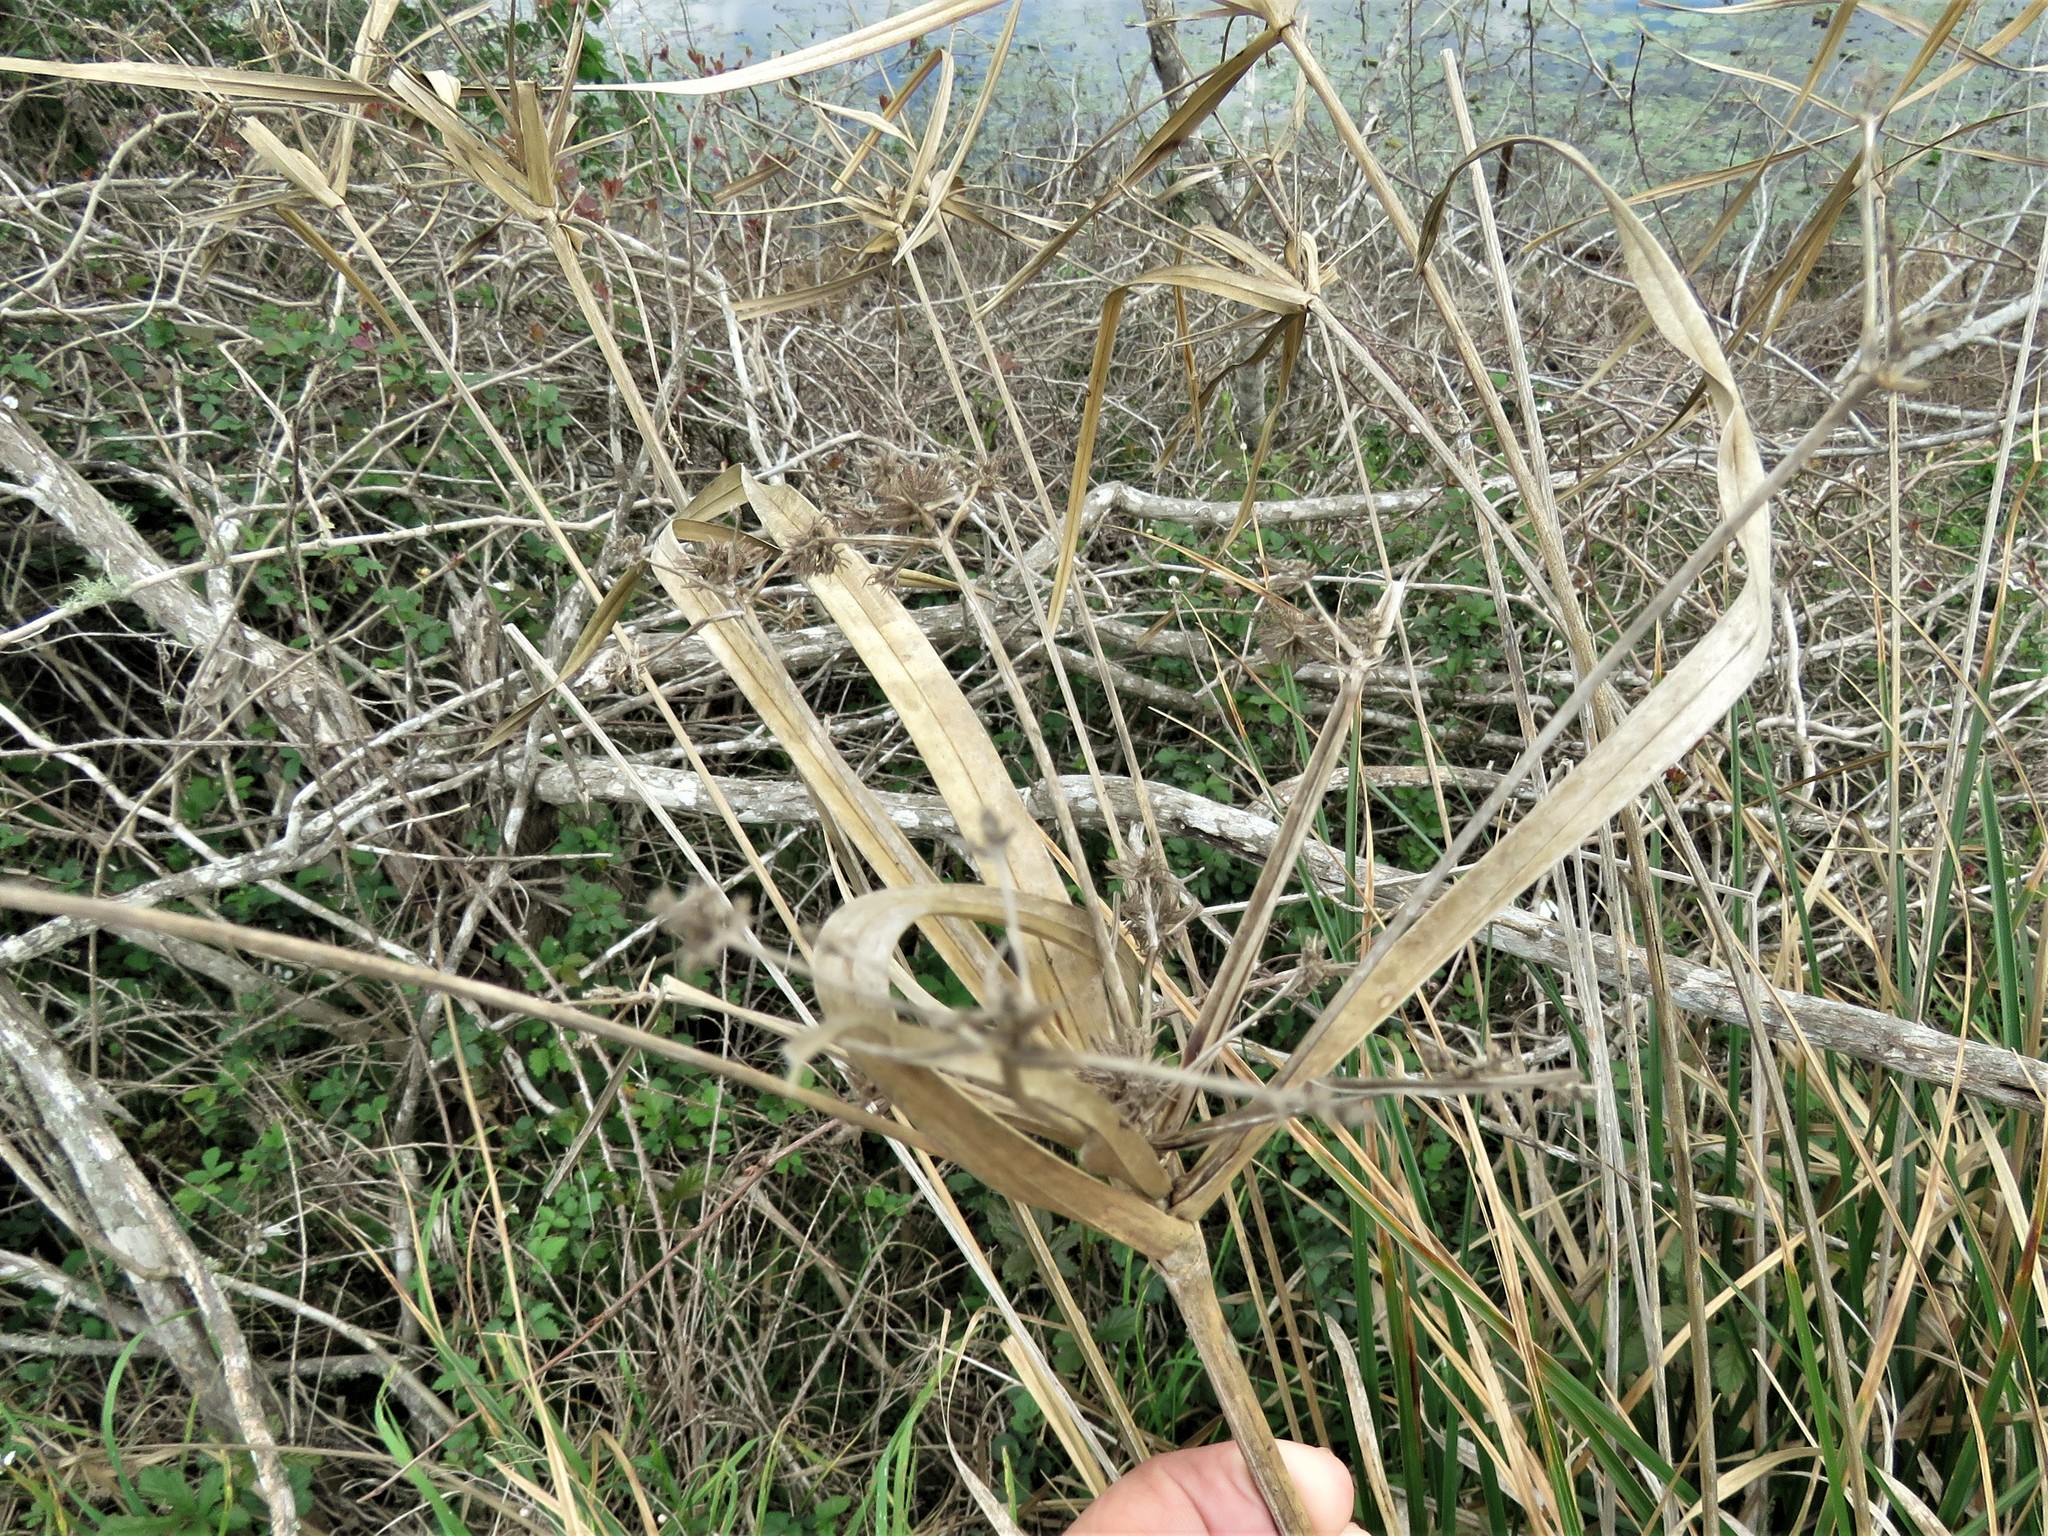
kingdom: Plantae
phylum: Tracheophyta
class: Liliopsida
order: Poales
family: Cyperaceae
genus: Cyperus
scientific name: Cyperus virens
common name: Green flatsedge
